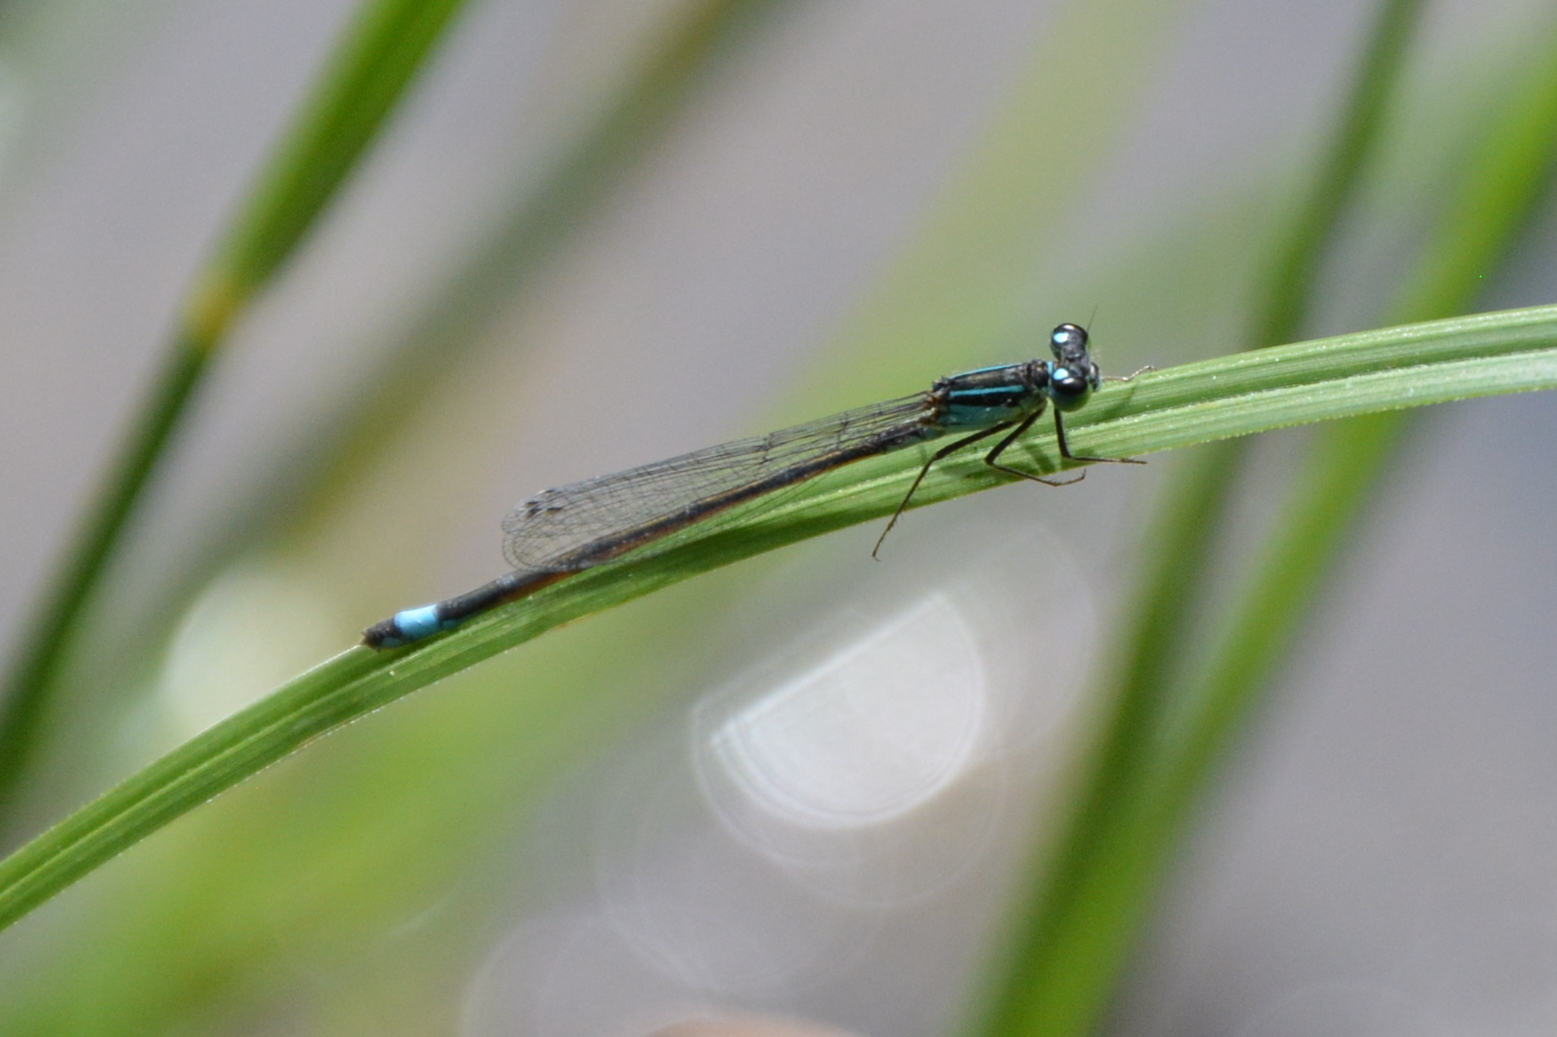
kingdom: Animalia
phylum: Arthropoda
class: Insecta
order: Odonata
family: Coenagrionidae
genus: Ischnura
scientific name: Ischnura elegans
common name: Blue-tailed damselfly
